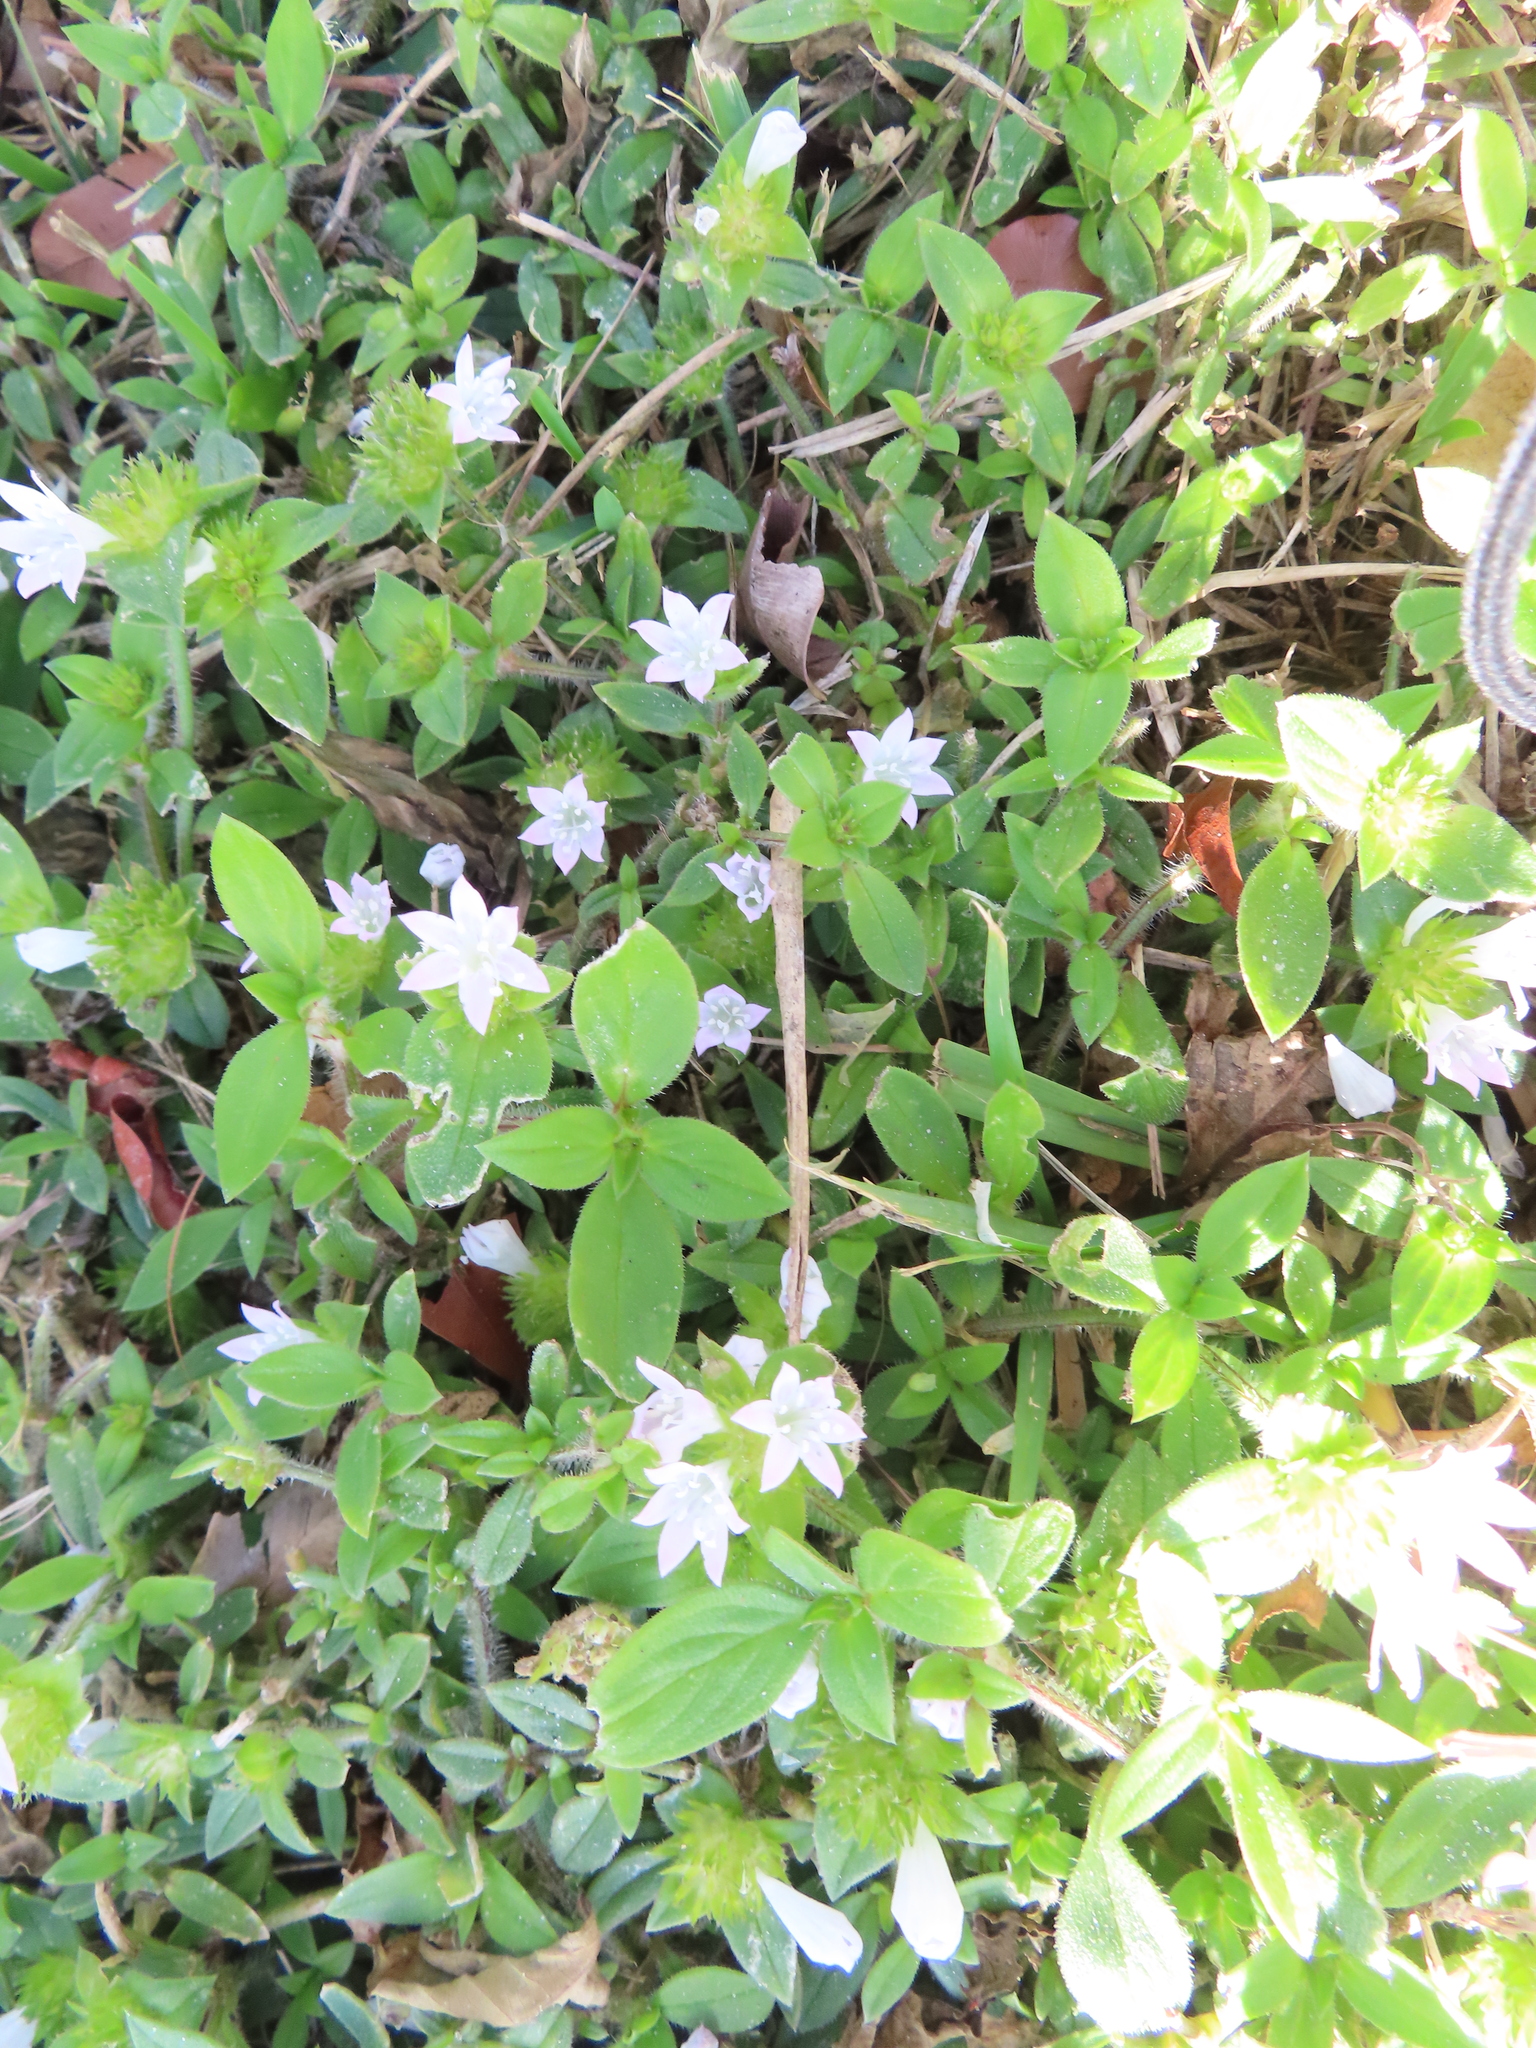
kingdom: Plantae
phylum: Tracheophyta
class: Magnoliopsida
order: Gentianales
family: Rubiaceae
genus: Richardia
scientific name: Richardia grandiflora
